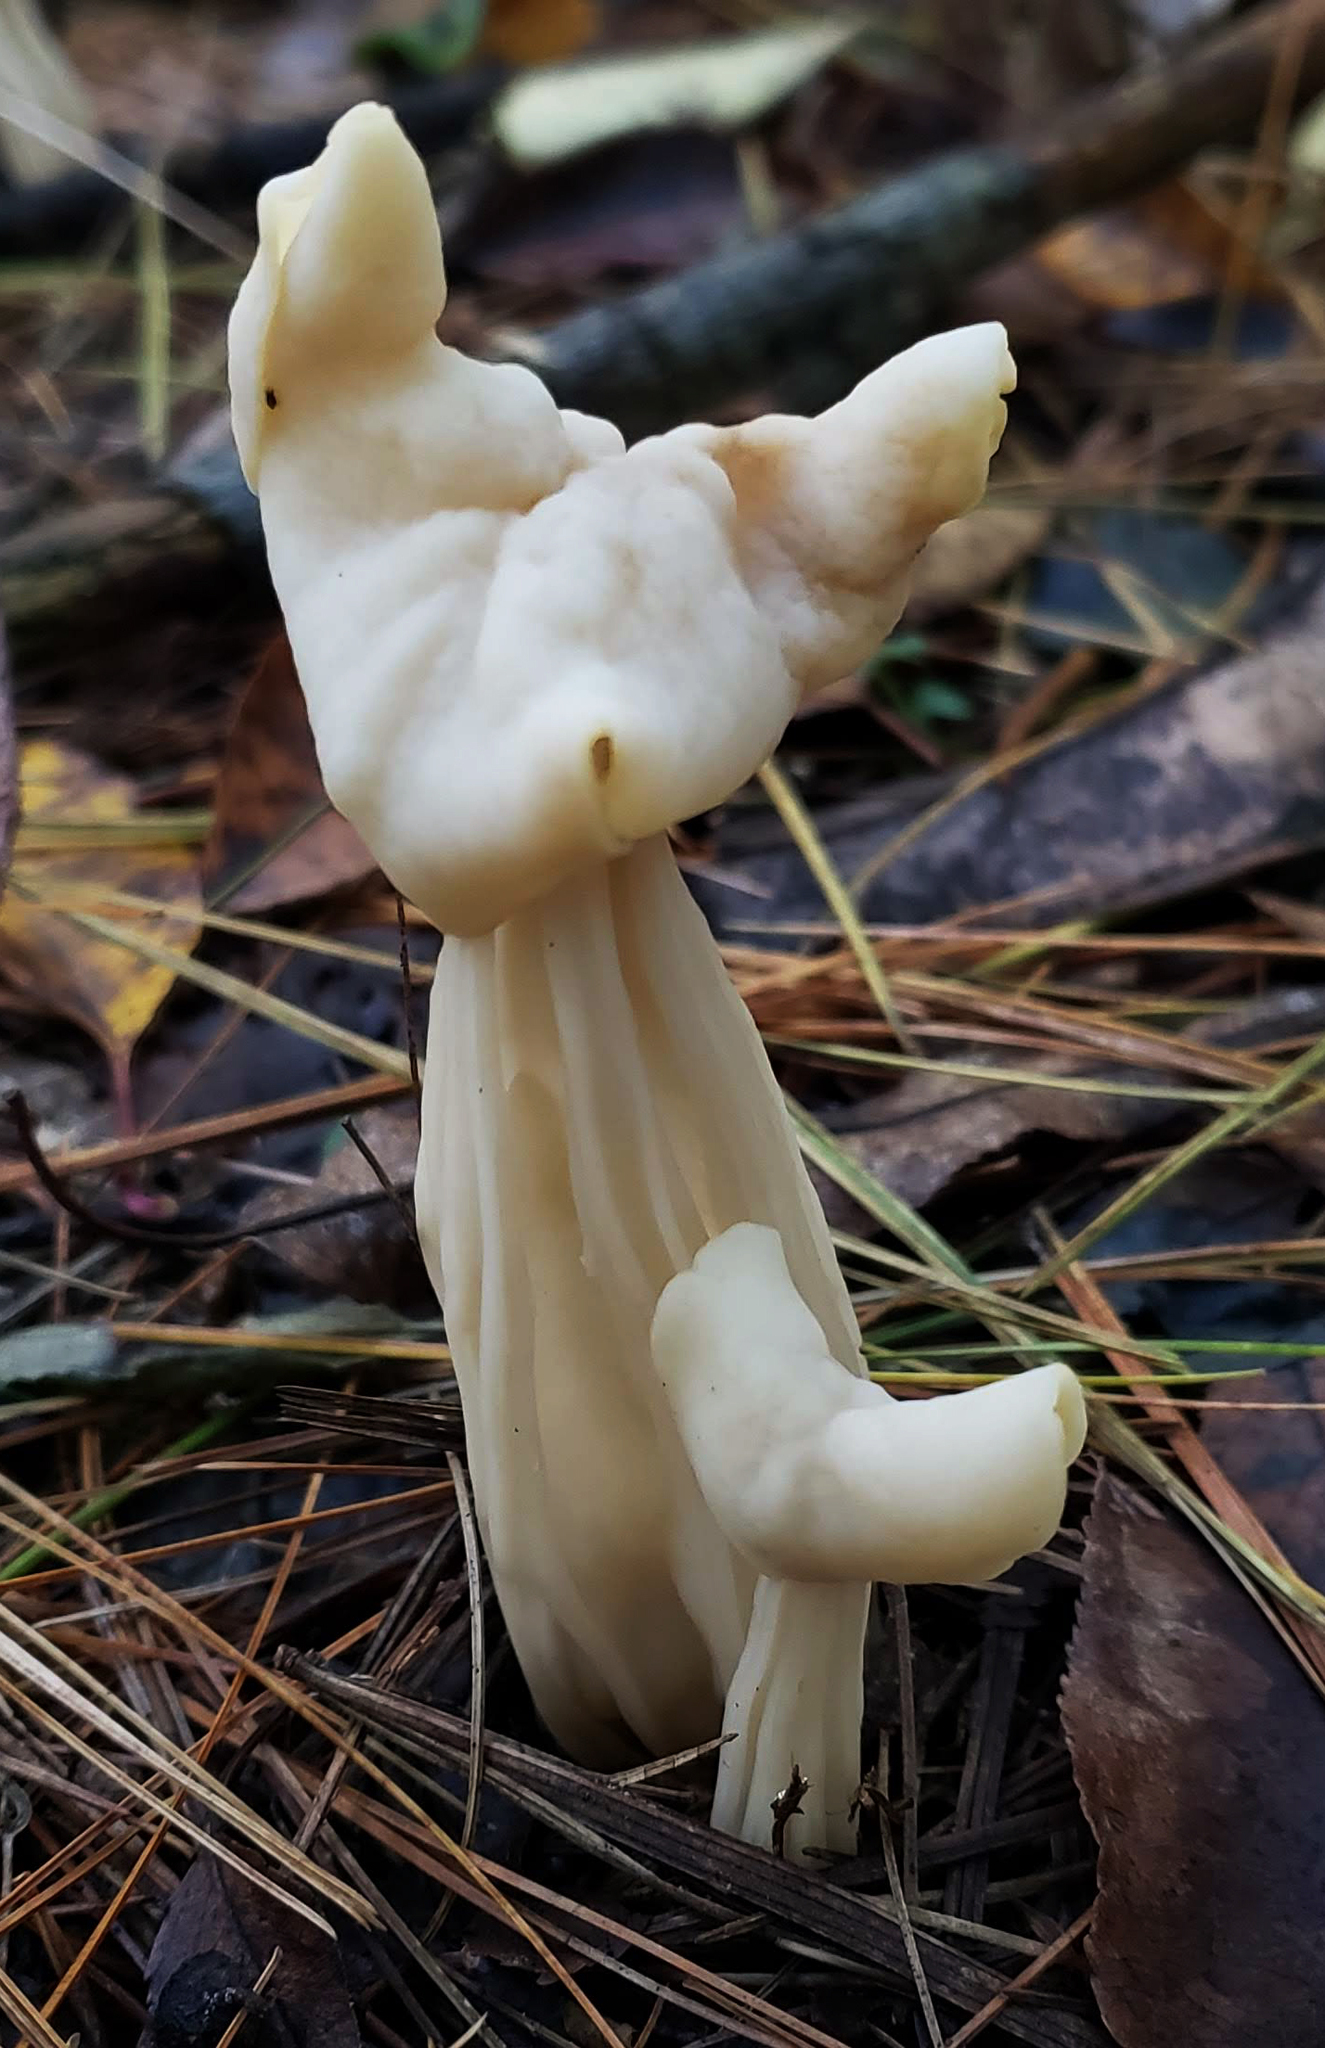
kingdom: Fungi
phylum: Ascomycota
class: Pezizomycetes
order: Pezizales
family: Helvellaceae
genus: Helvella
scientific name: Helvella crispa
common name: White saddle
